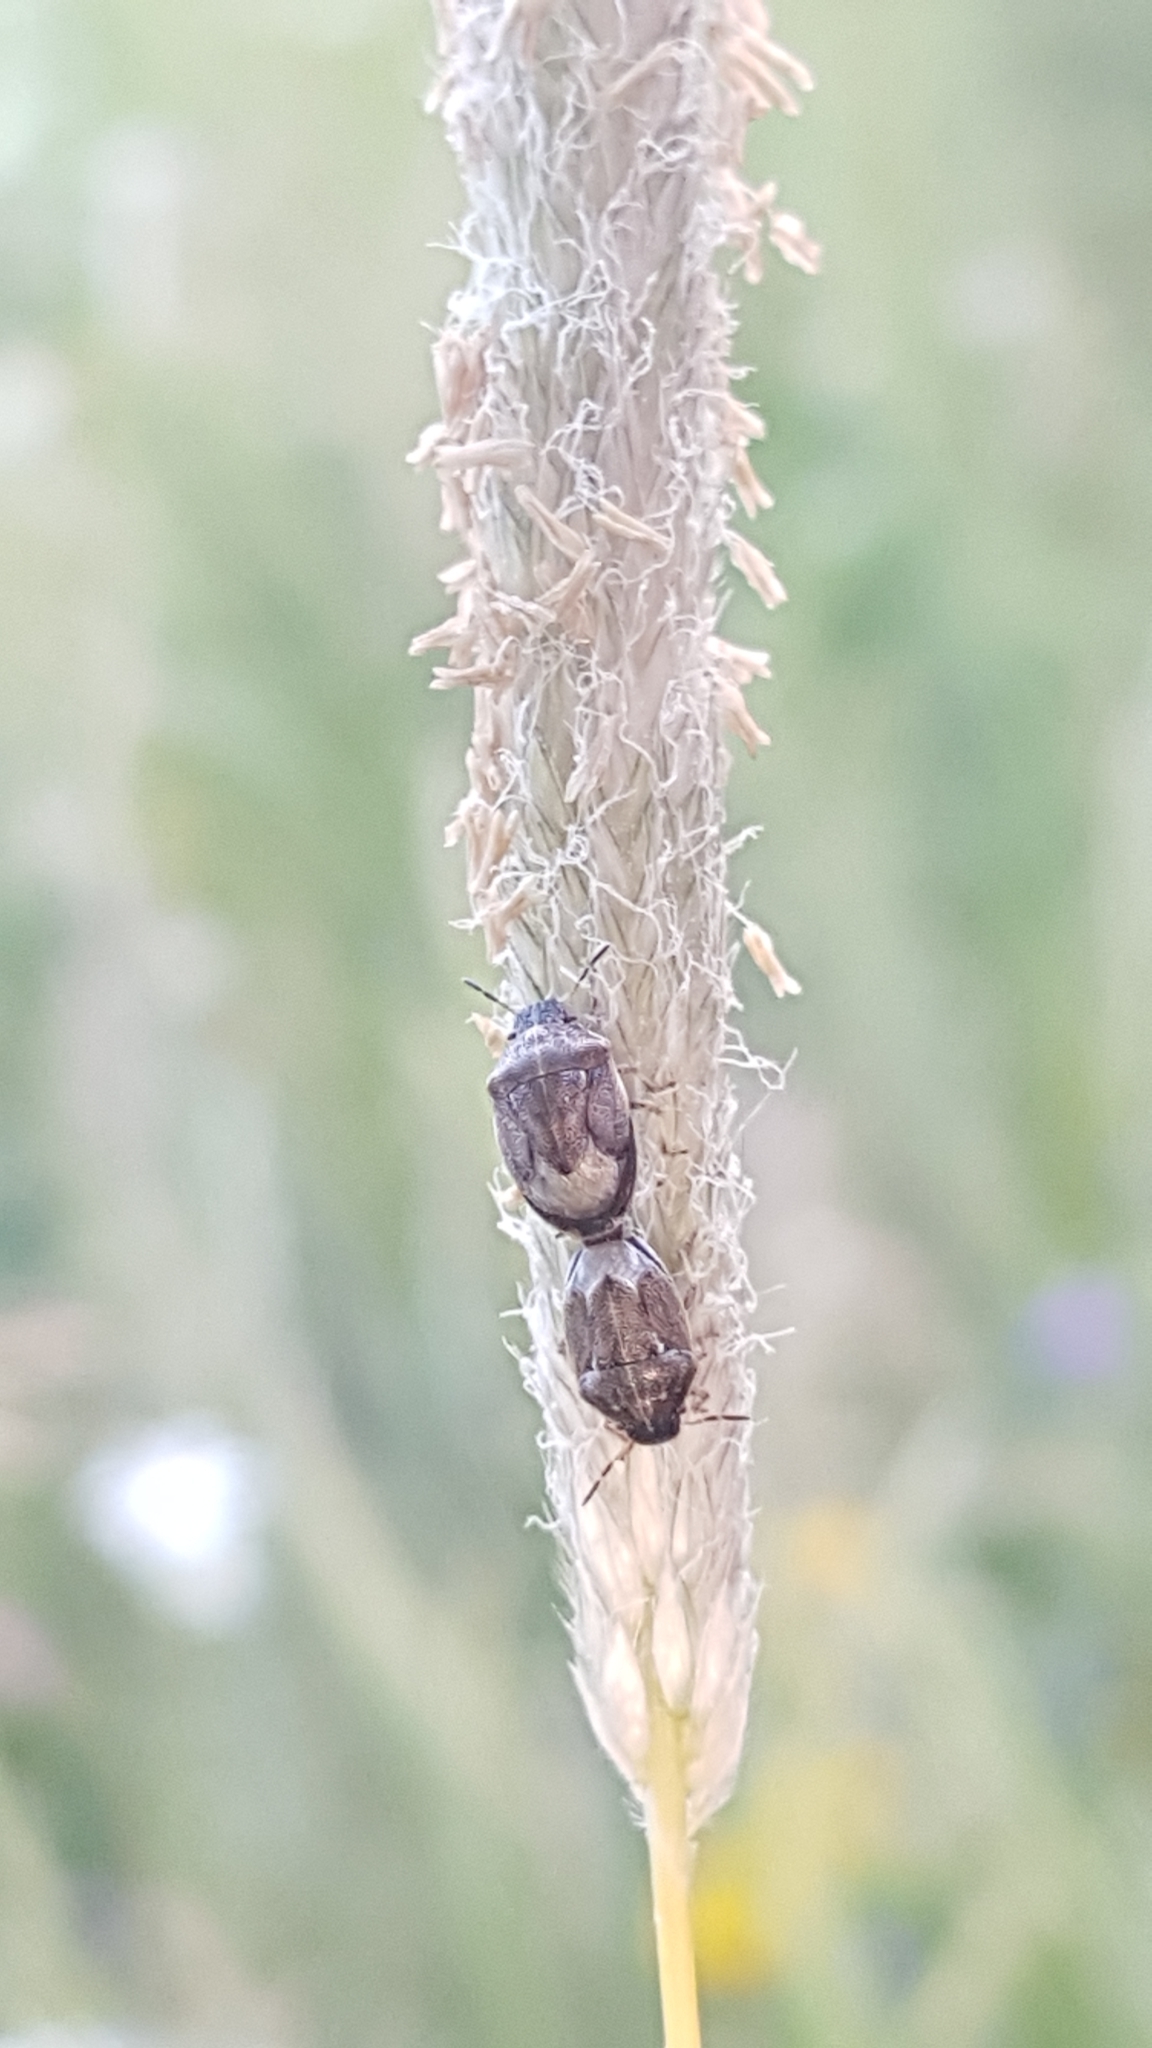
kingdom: Animalia
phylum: Arthropoda
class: Insecta
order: Hemiptera
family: Pentatomidae
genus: Neottiglossa
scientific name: Neottiglossa pusilla
